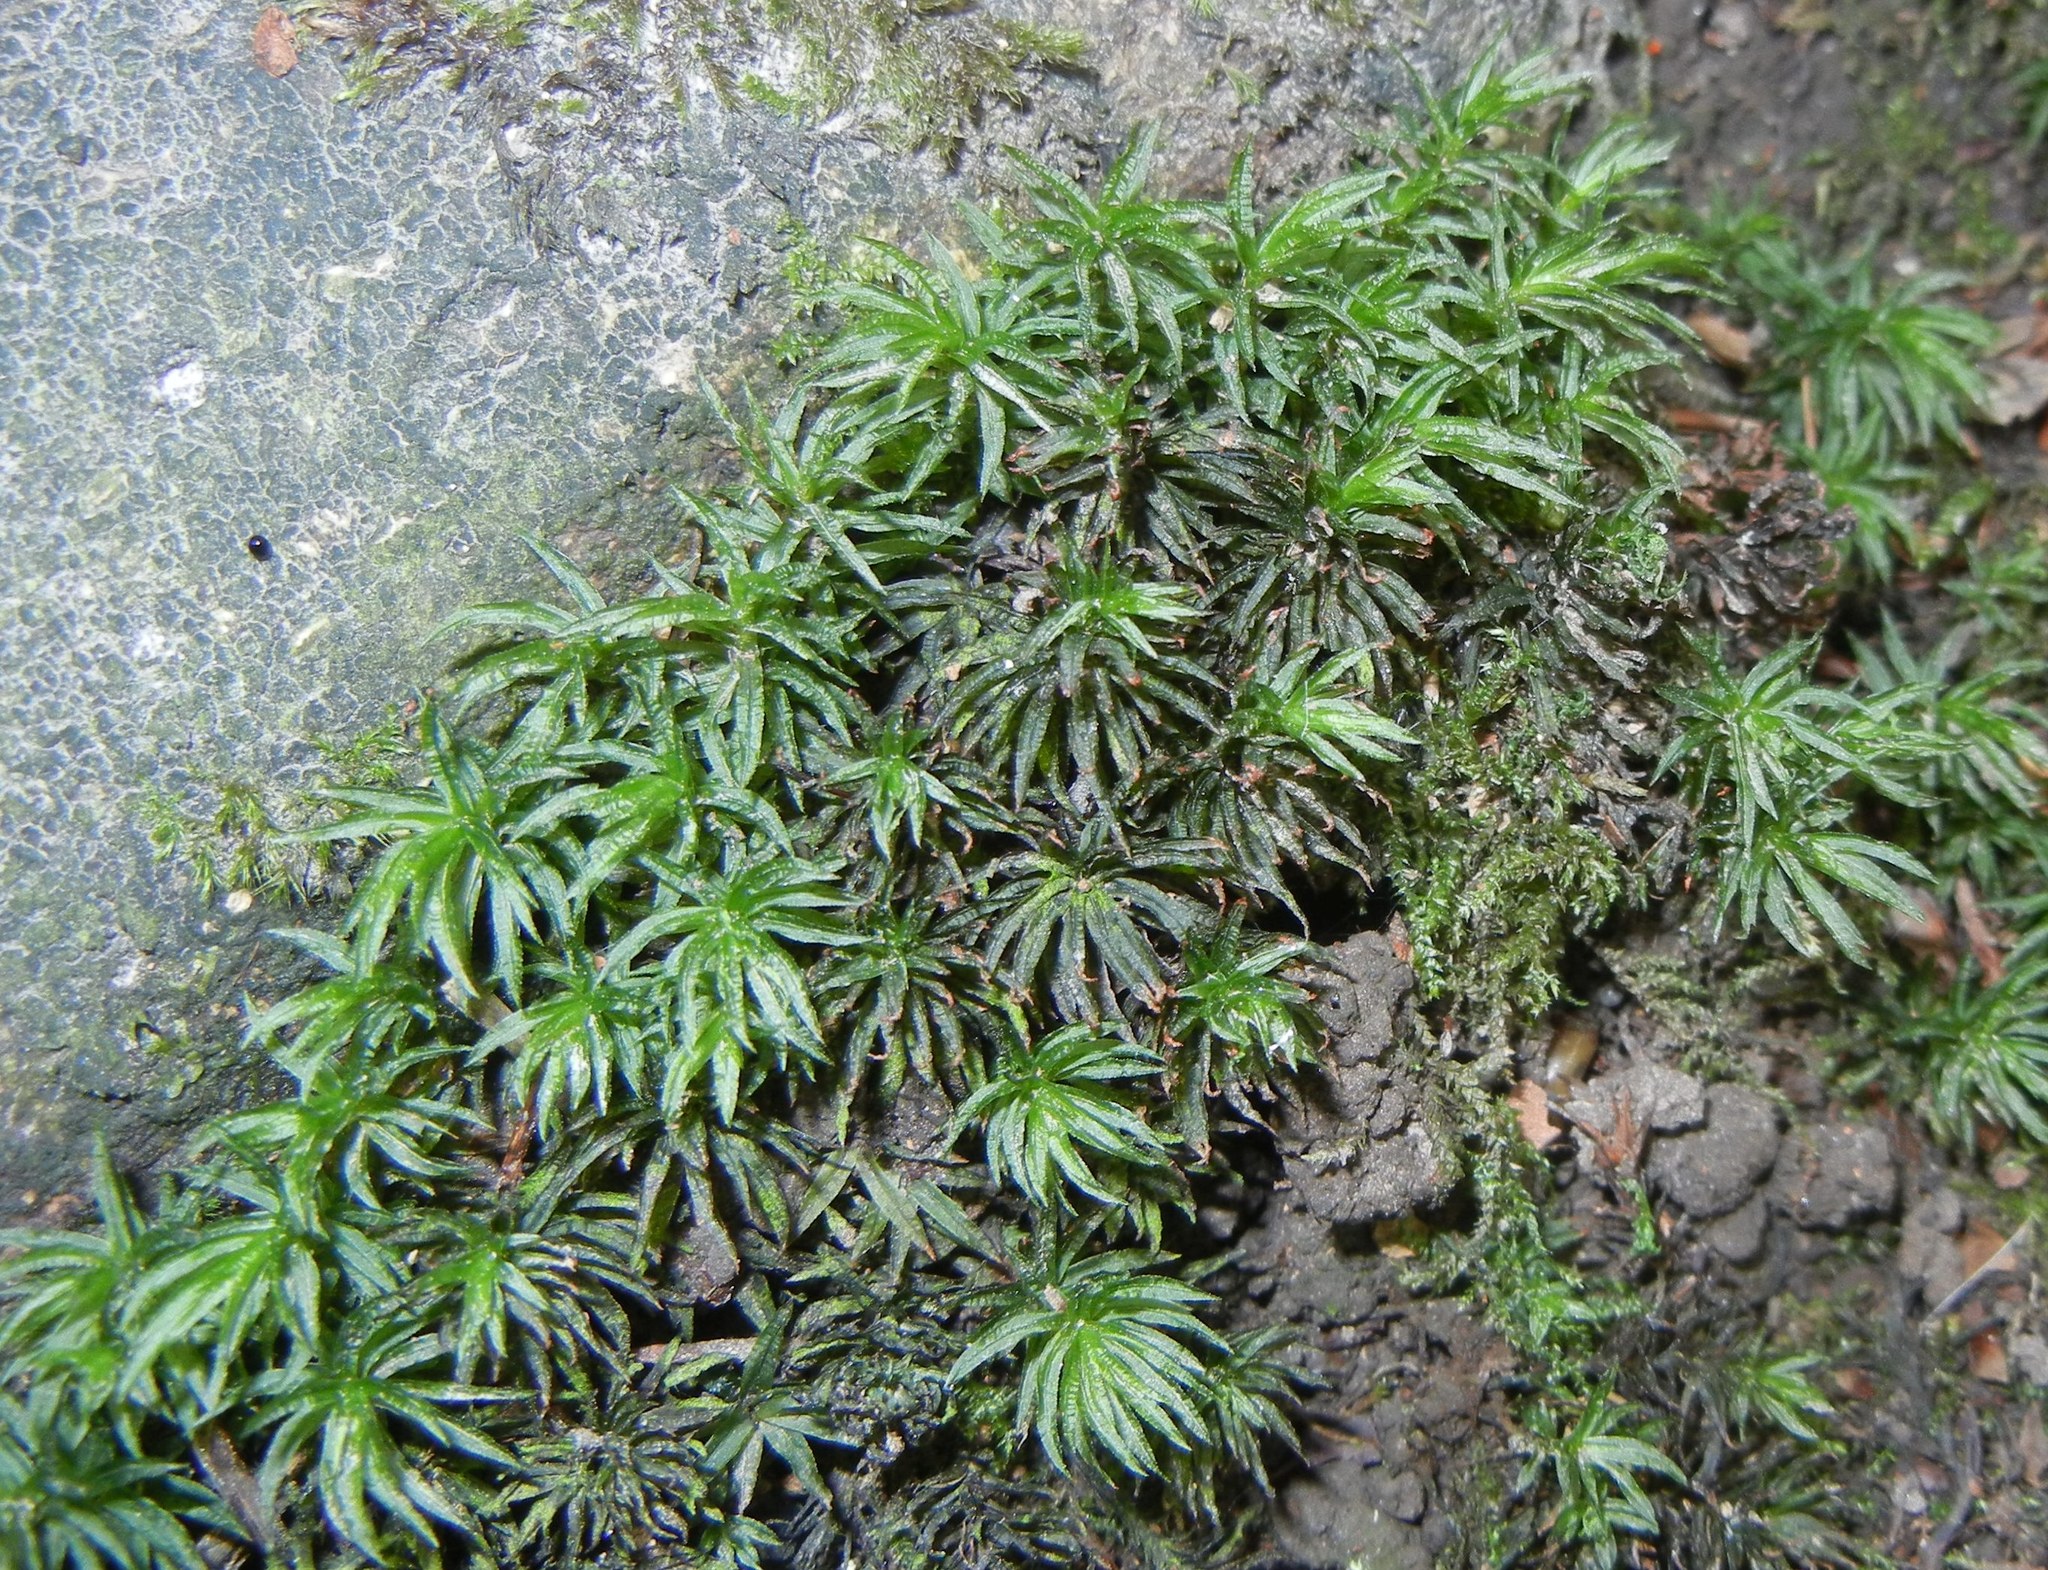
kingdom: Plantae
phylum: Bryophyta
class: Polytrichopsida
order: Polytrichales
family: Polytrichaceae
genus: Atrichum
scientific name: Atrichum undulatum
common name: Common smoothcap
